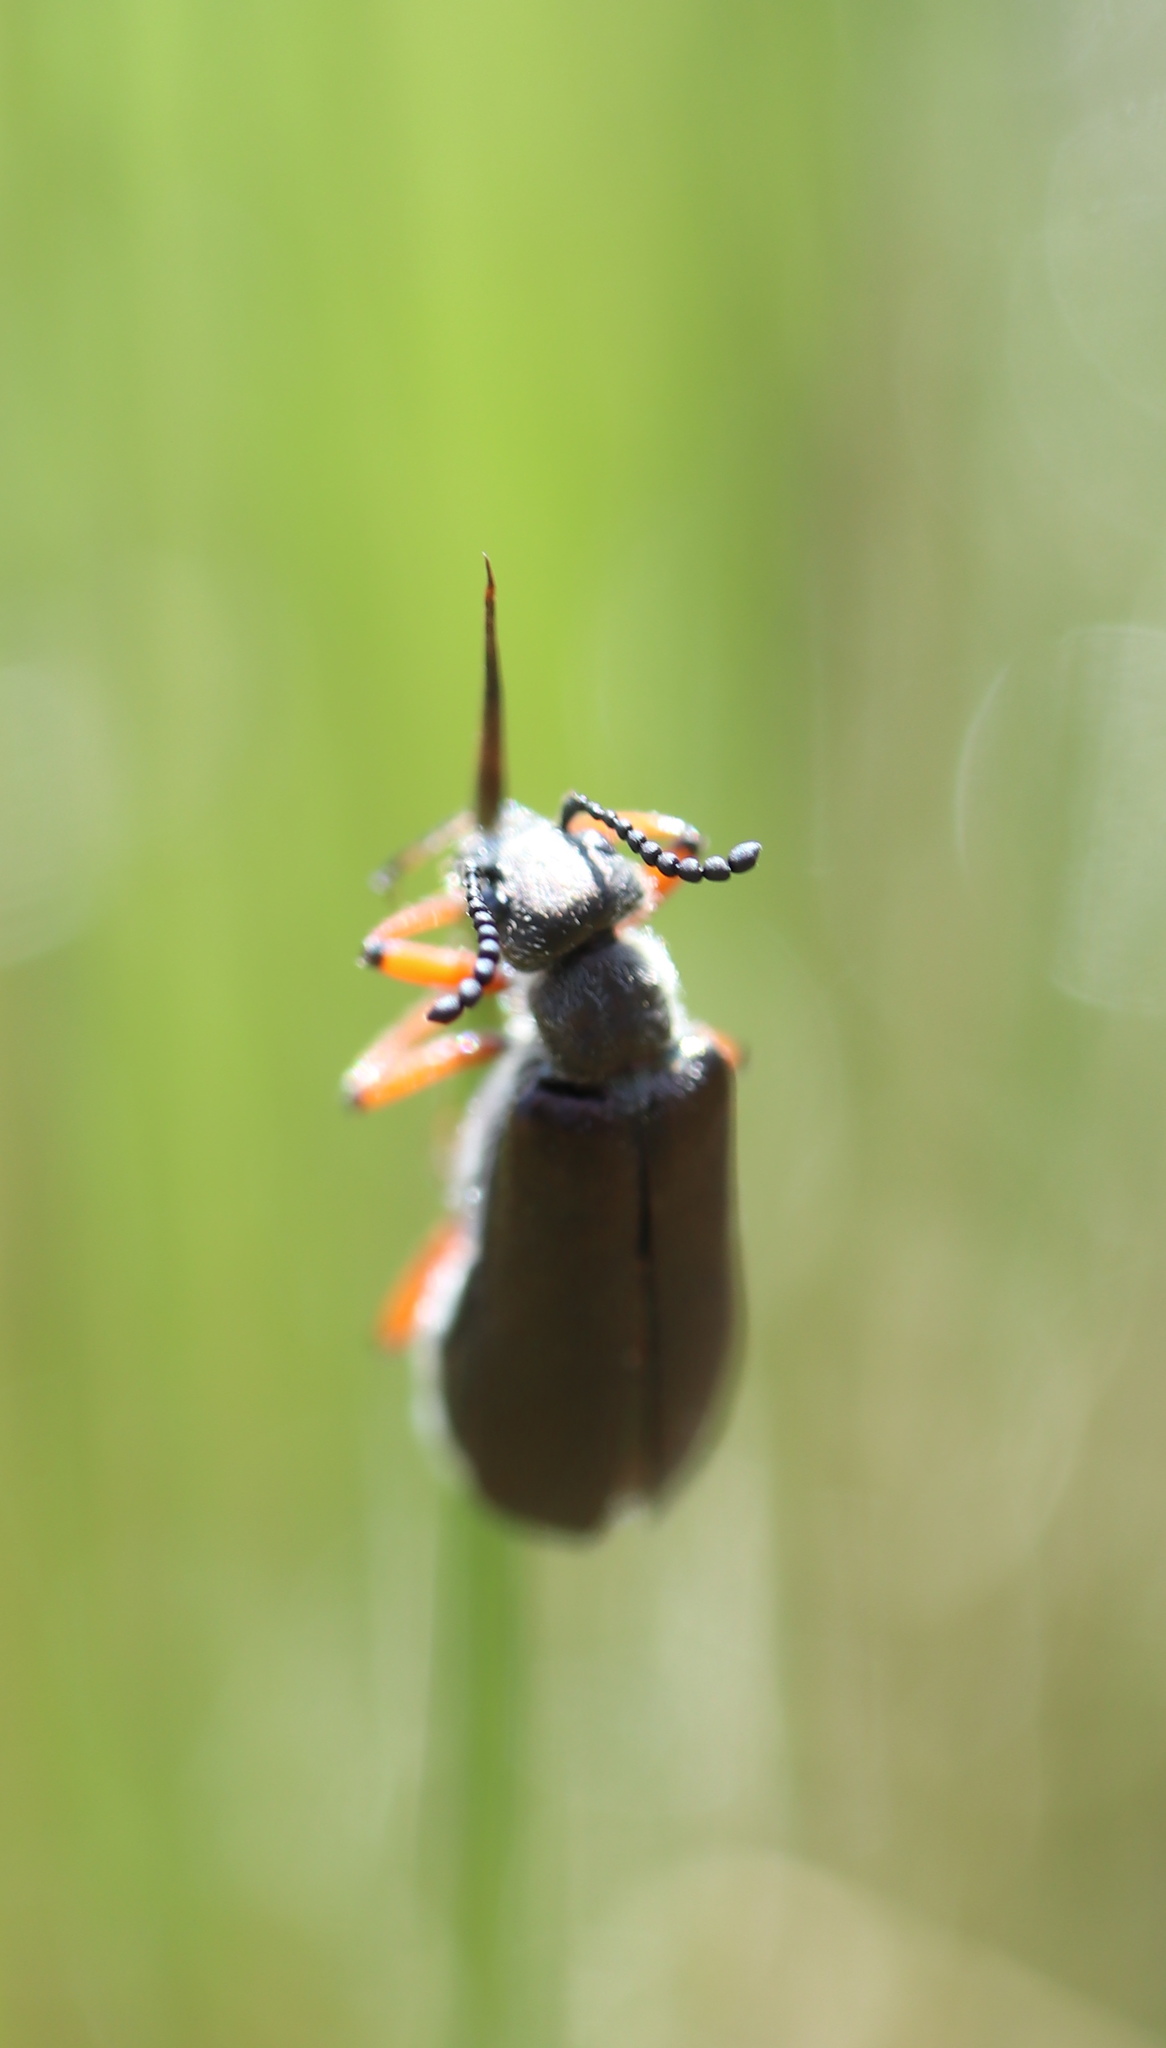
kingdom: Animalia
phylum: Arthropoda
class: Insecta
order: Coleoptera
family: Meloidae
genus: Lytta
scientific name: Lytta aenea
